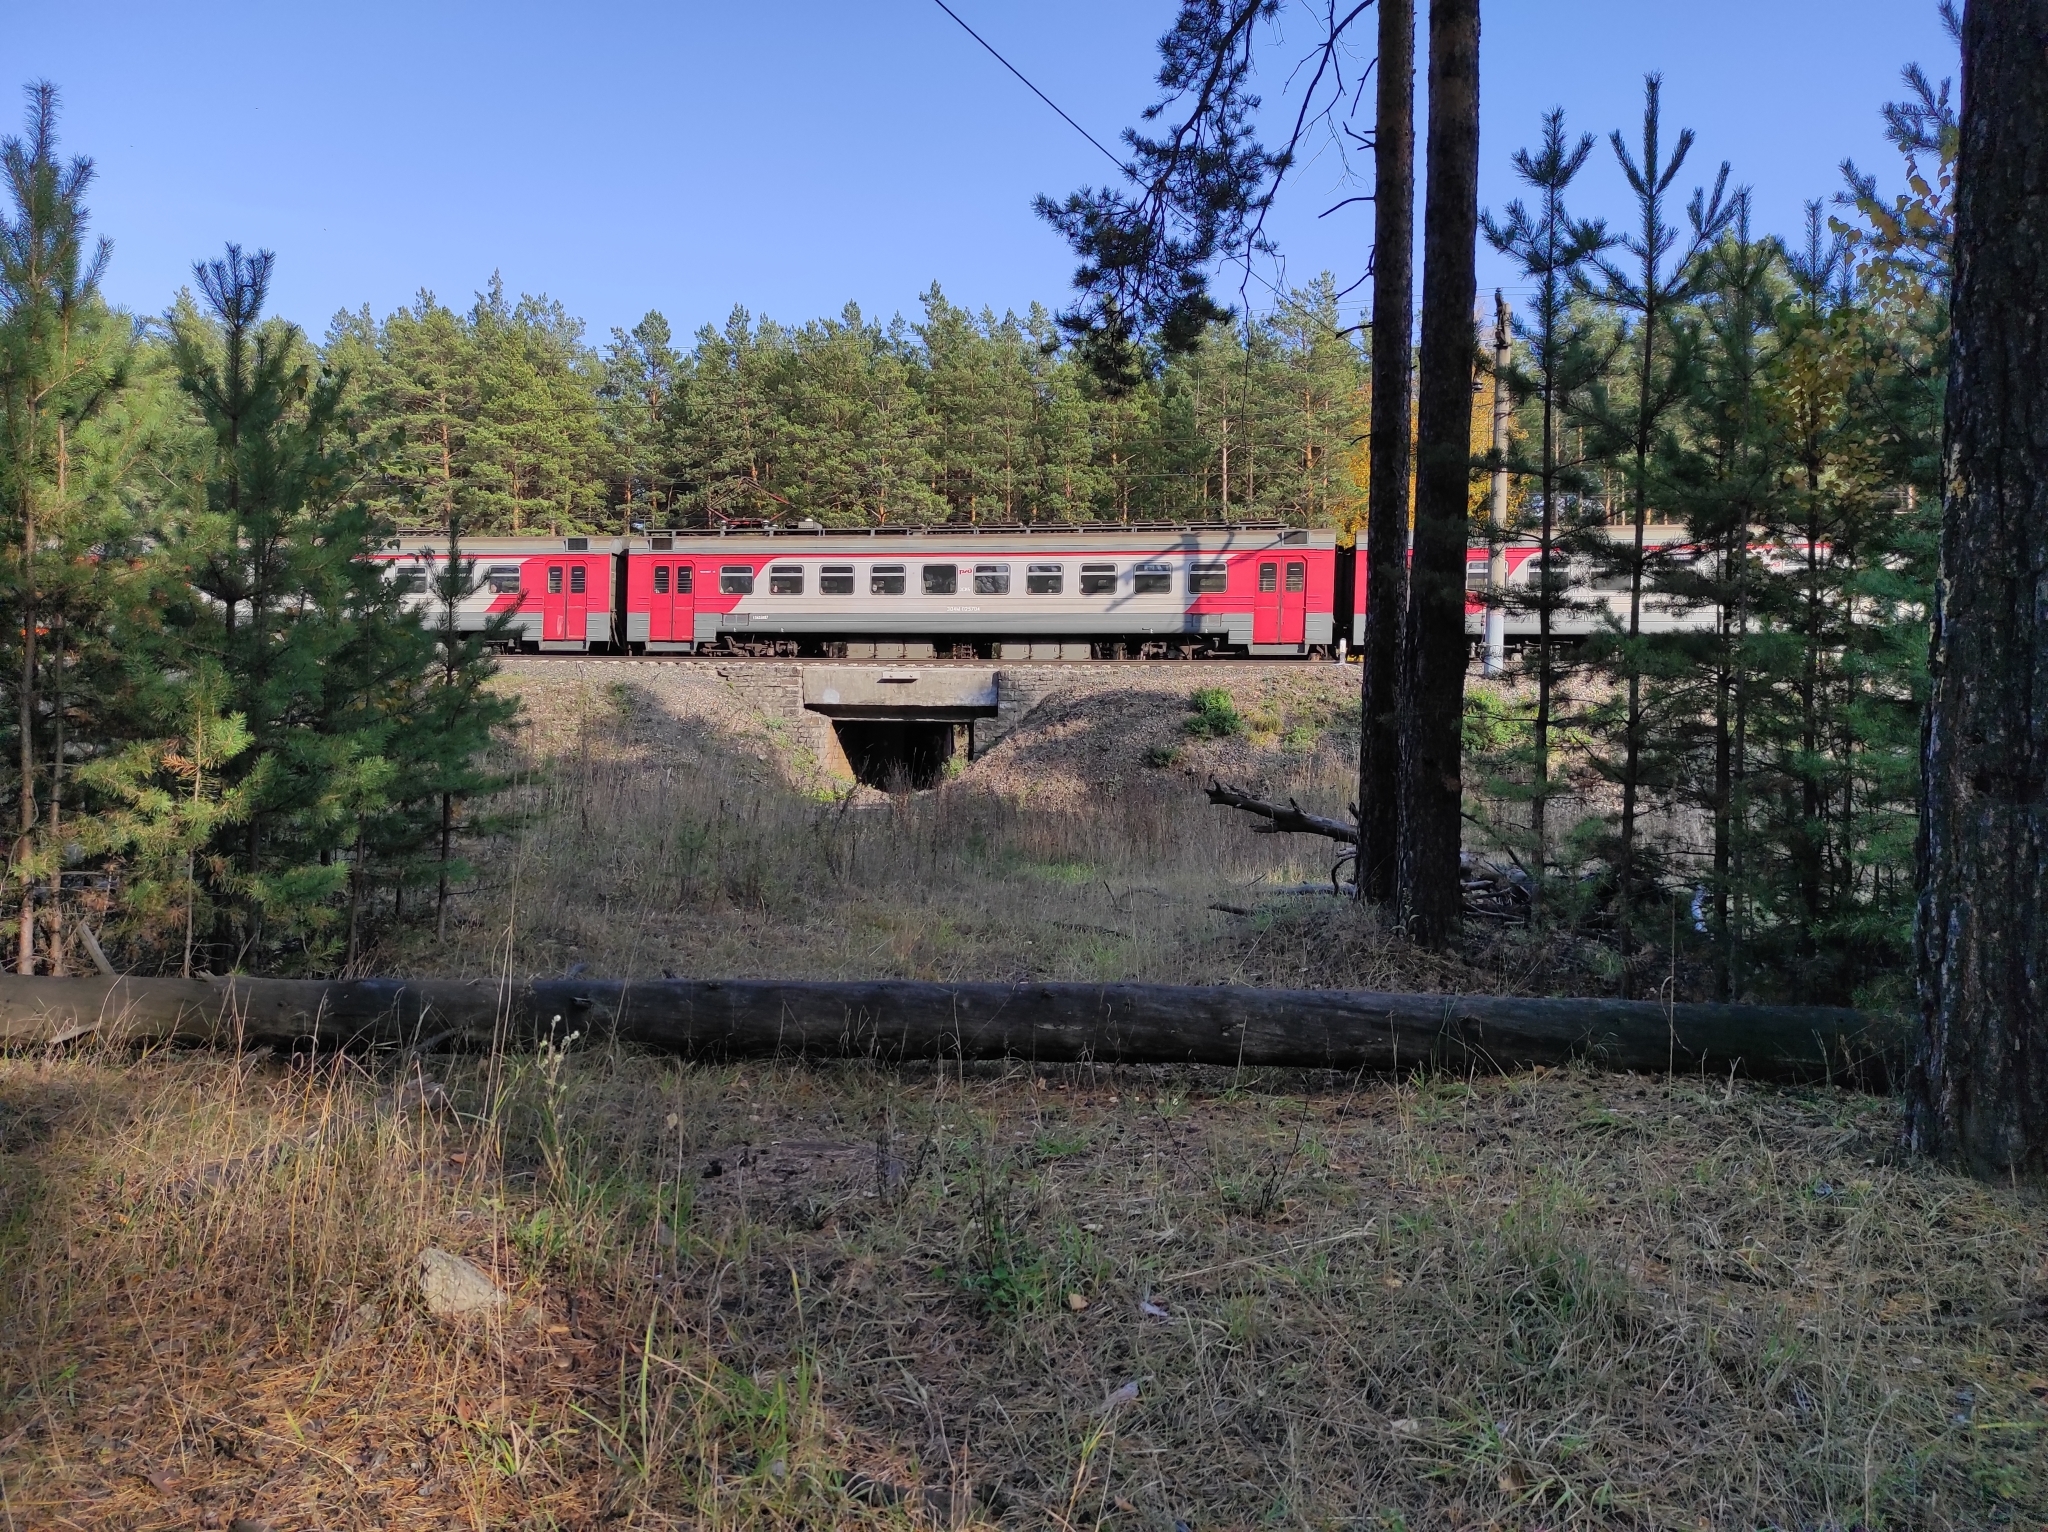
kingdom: Plantae
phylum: Tracheophyta
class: Pinopsida
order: Pinales
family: Pinaceae
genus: Pinus
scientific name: Pinus sylvestris
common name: Scots pine
